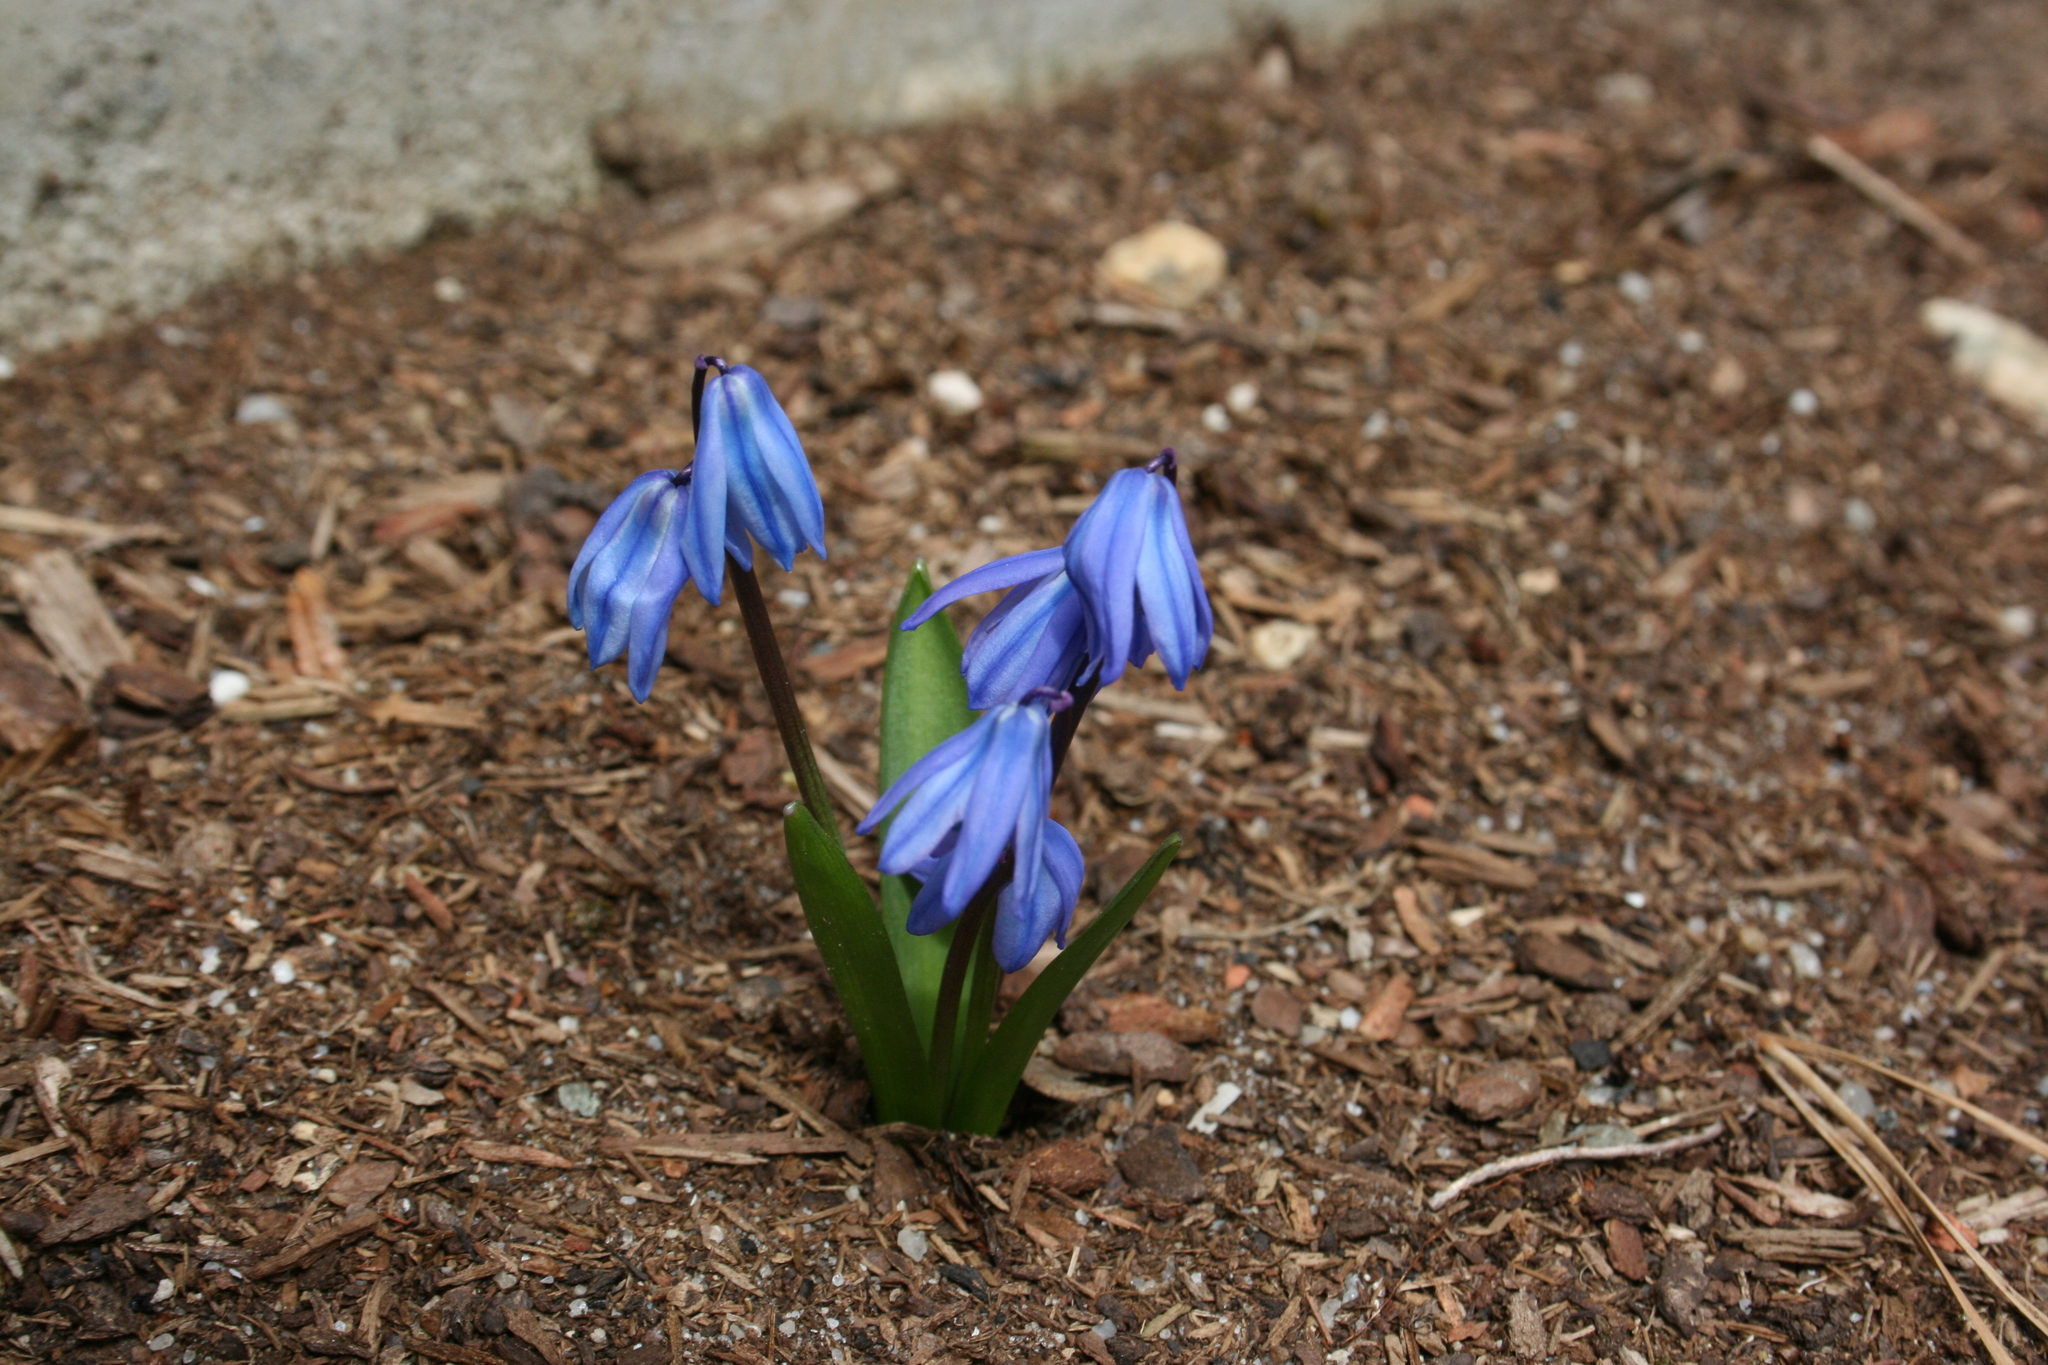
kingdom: Plantae
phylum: Tracheophyta
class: Liliopsida
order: Asparagales
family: Asparagaceae
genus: Scilla
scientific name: Scilla siberica
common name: Siberian squill
